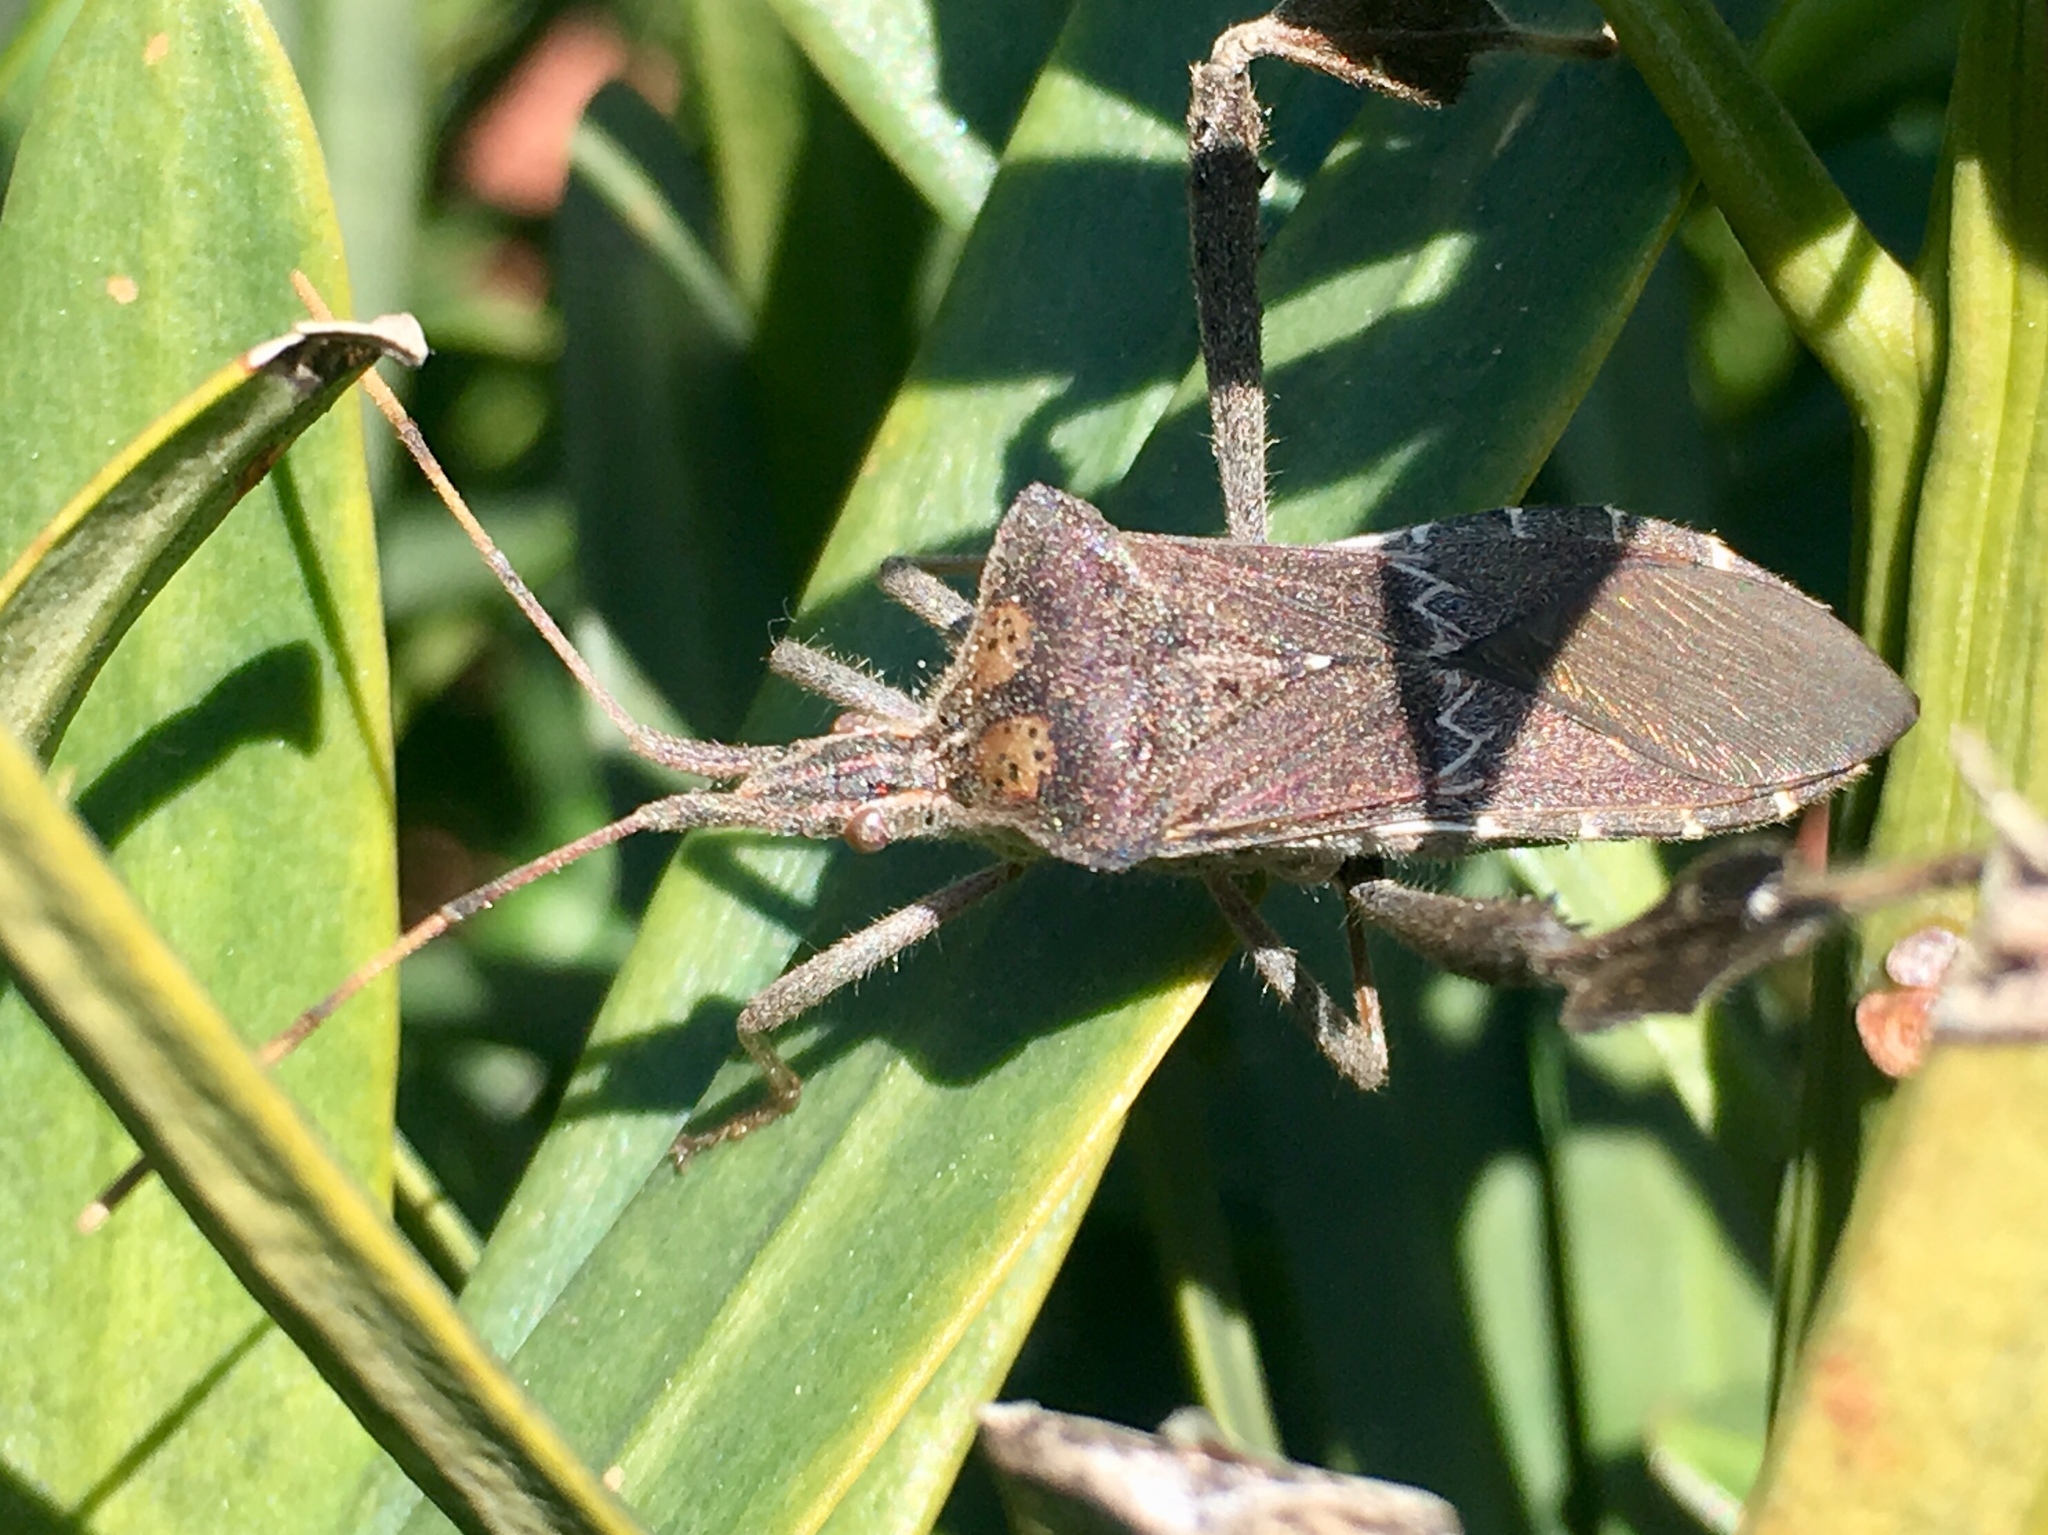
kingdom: Animalia
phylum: Arthropoda
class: Insecta
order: Hemiptera
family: Coreidae
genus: Leptoglossus
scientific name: Leptoglossus zonatus
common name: Large-legged bug
